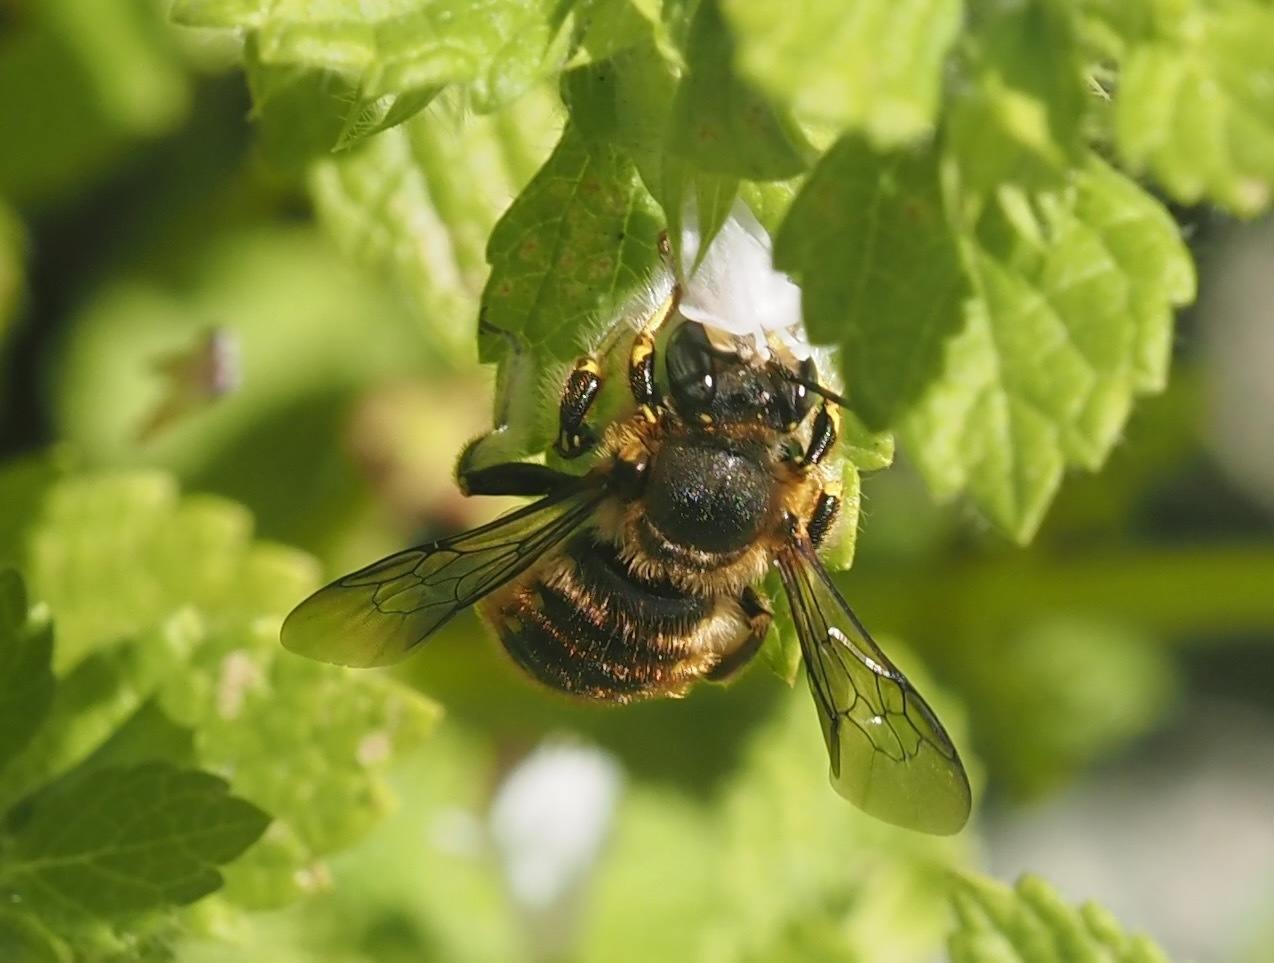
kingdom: Animalia
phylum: Arthropoda
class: Insecta
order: Hymenoptera
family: Megachilidae
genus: Anthidium
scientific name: Anthidium manicatum
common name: Wool carder bee
